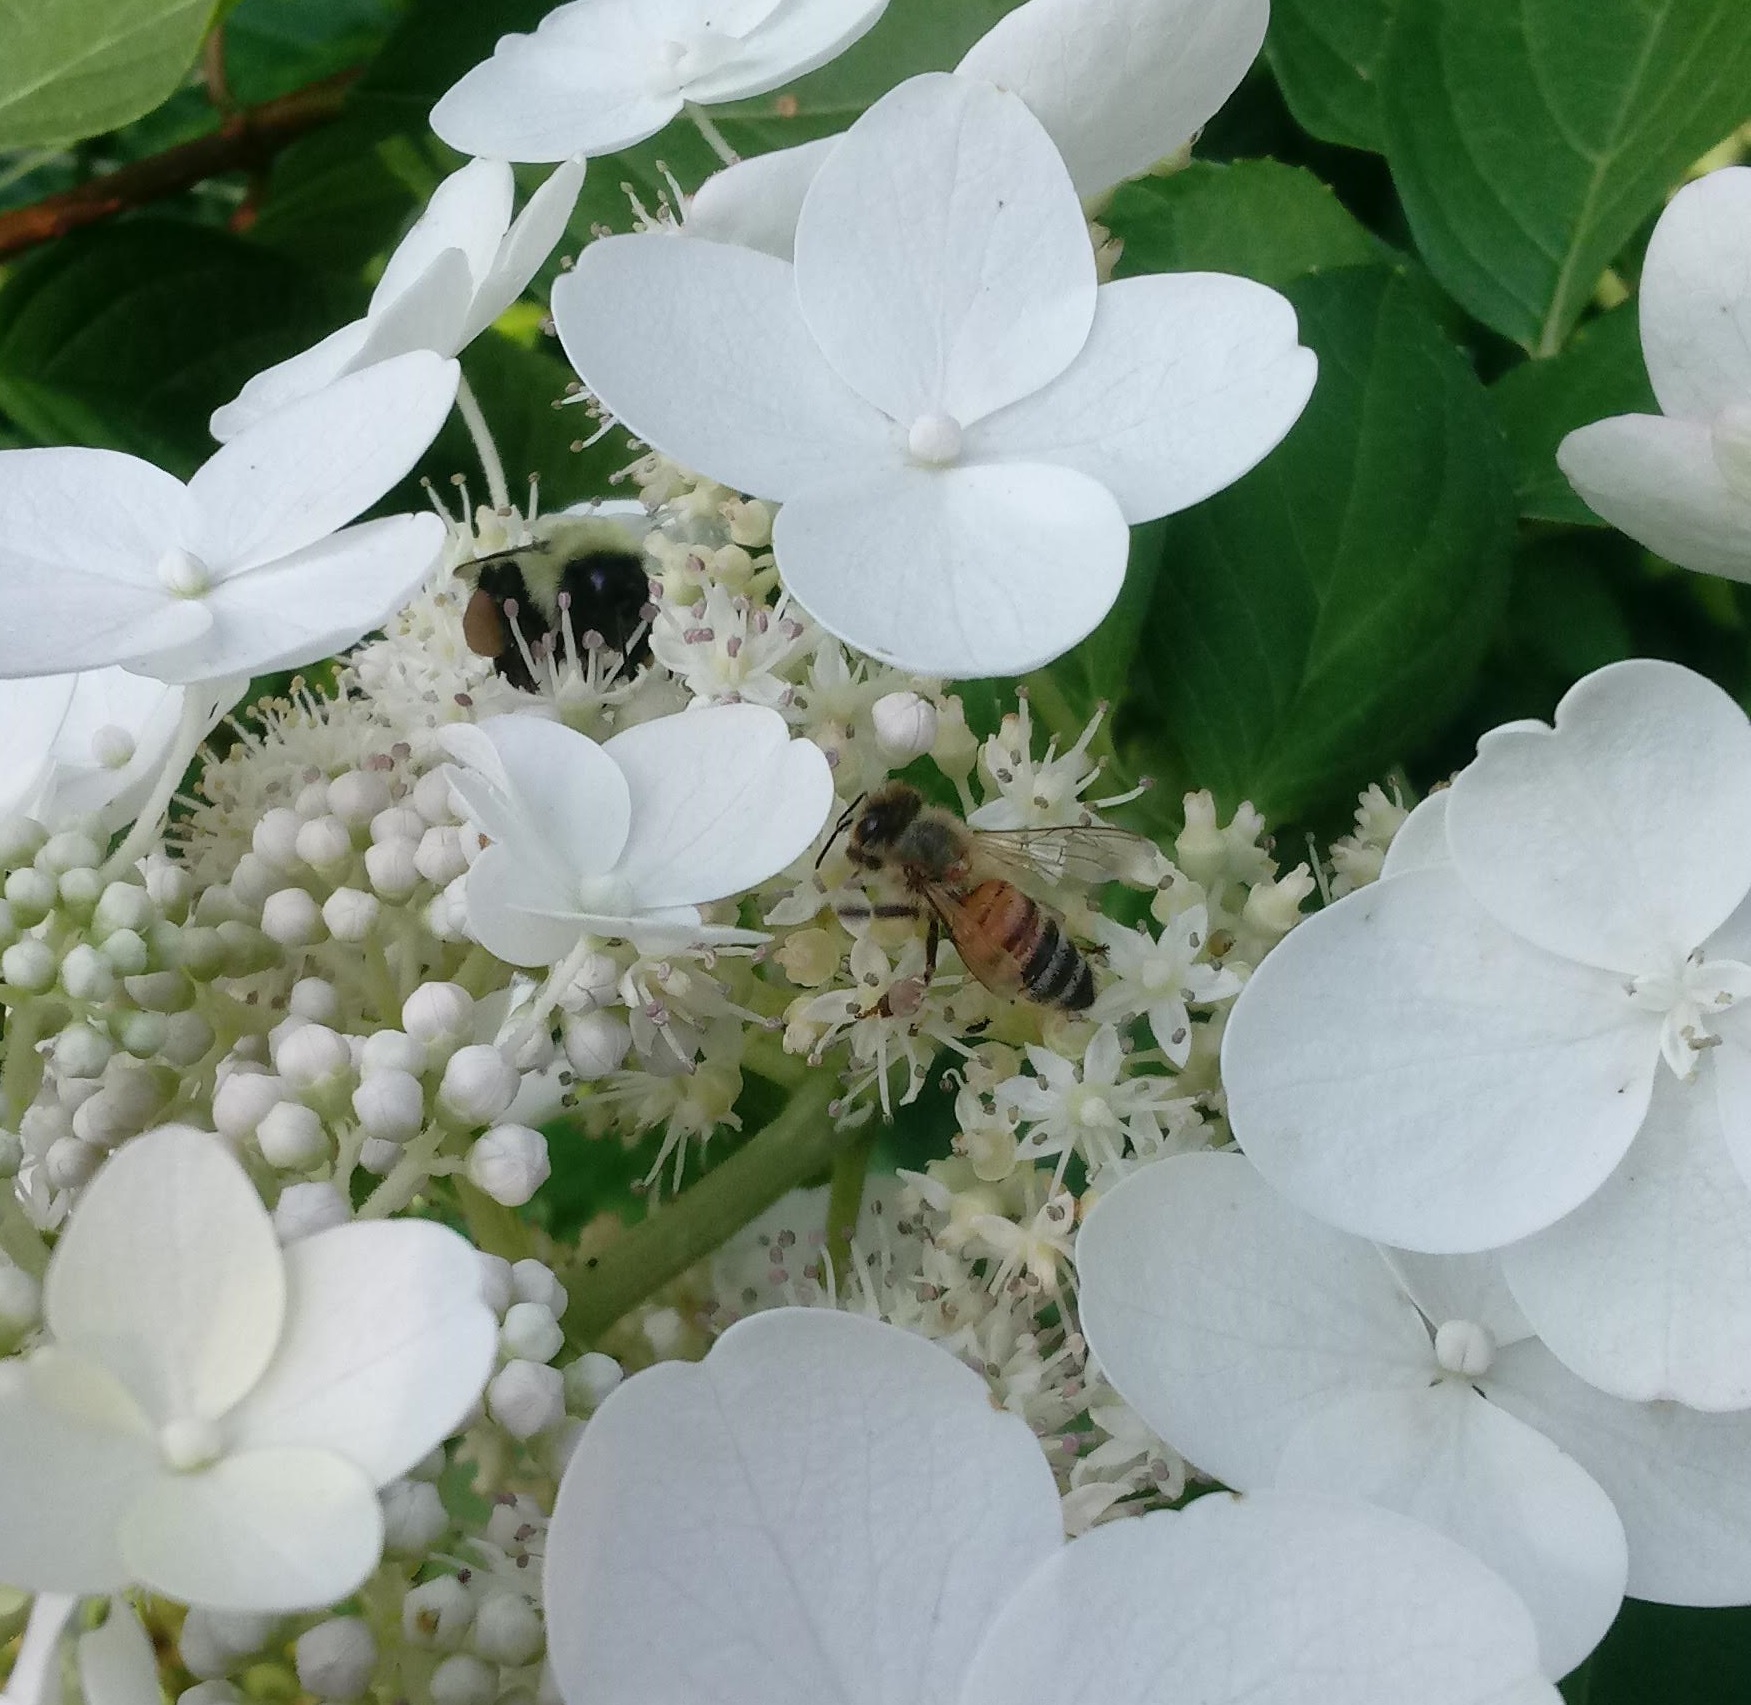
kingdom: Animalia
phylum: Arthropoda
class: Insecta
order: Hymenoptera
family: Apidae
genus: Apis
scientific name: Apis mellifera
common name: Honey bee
